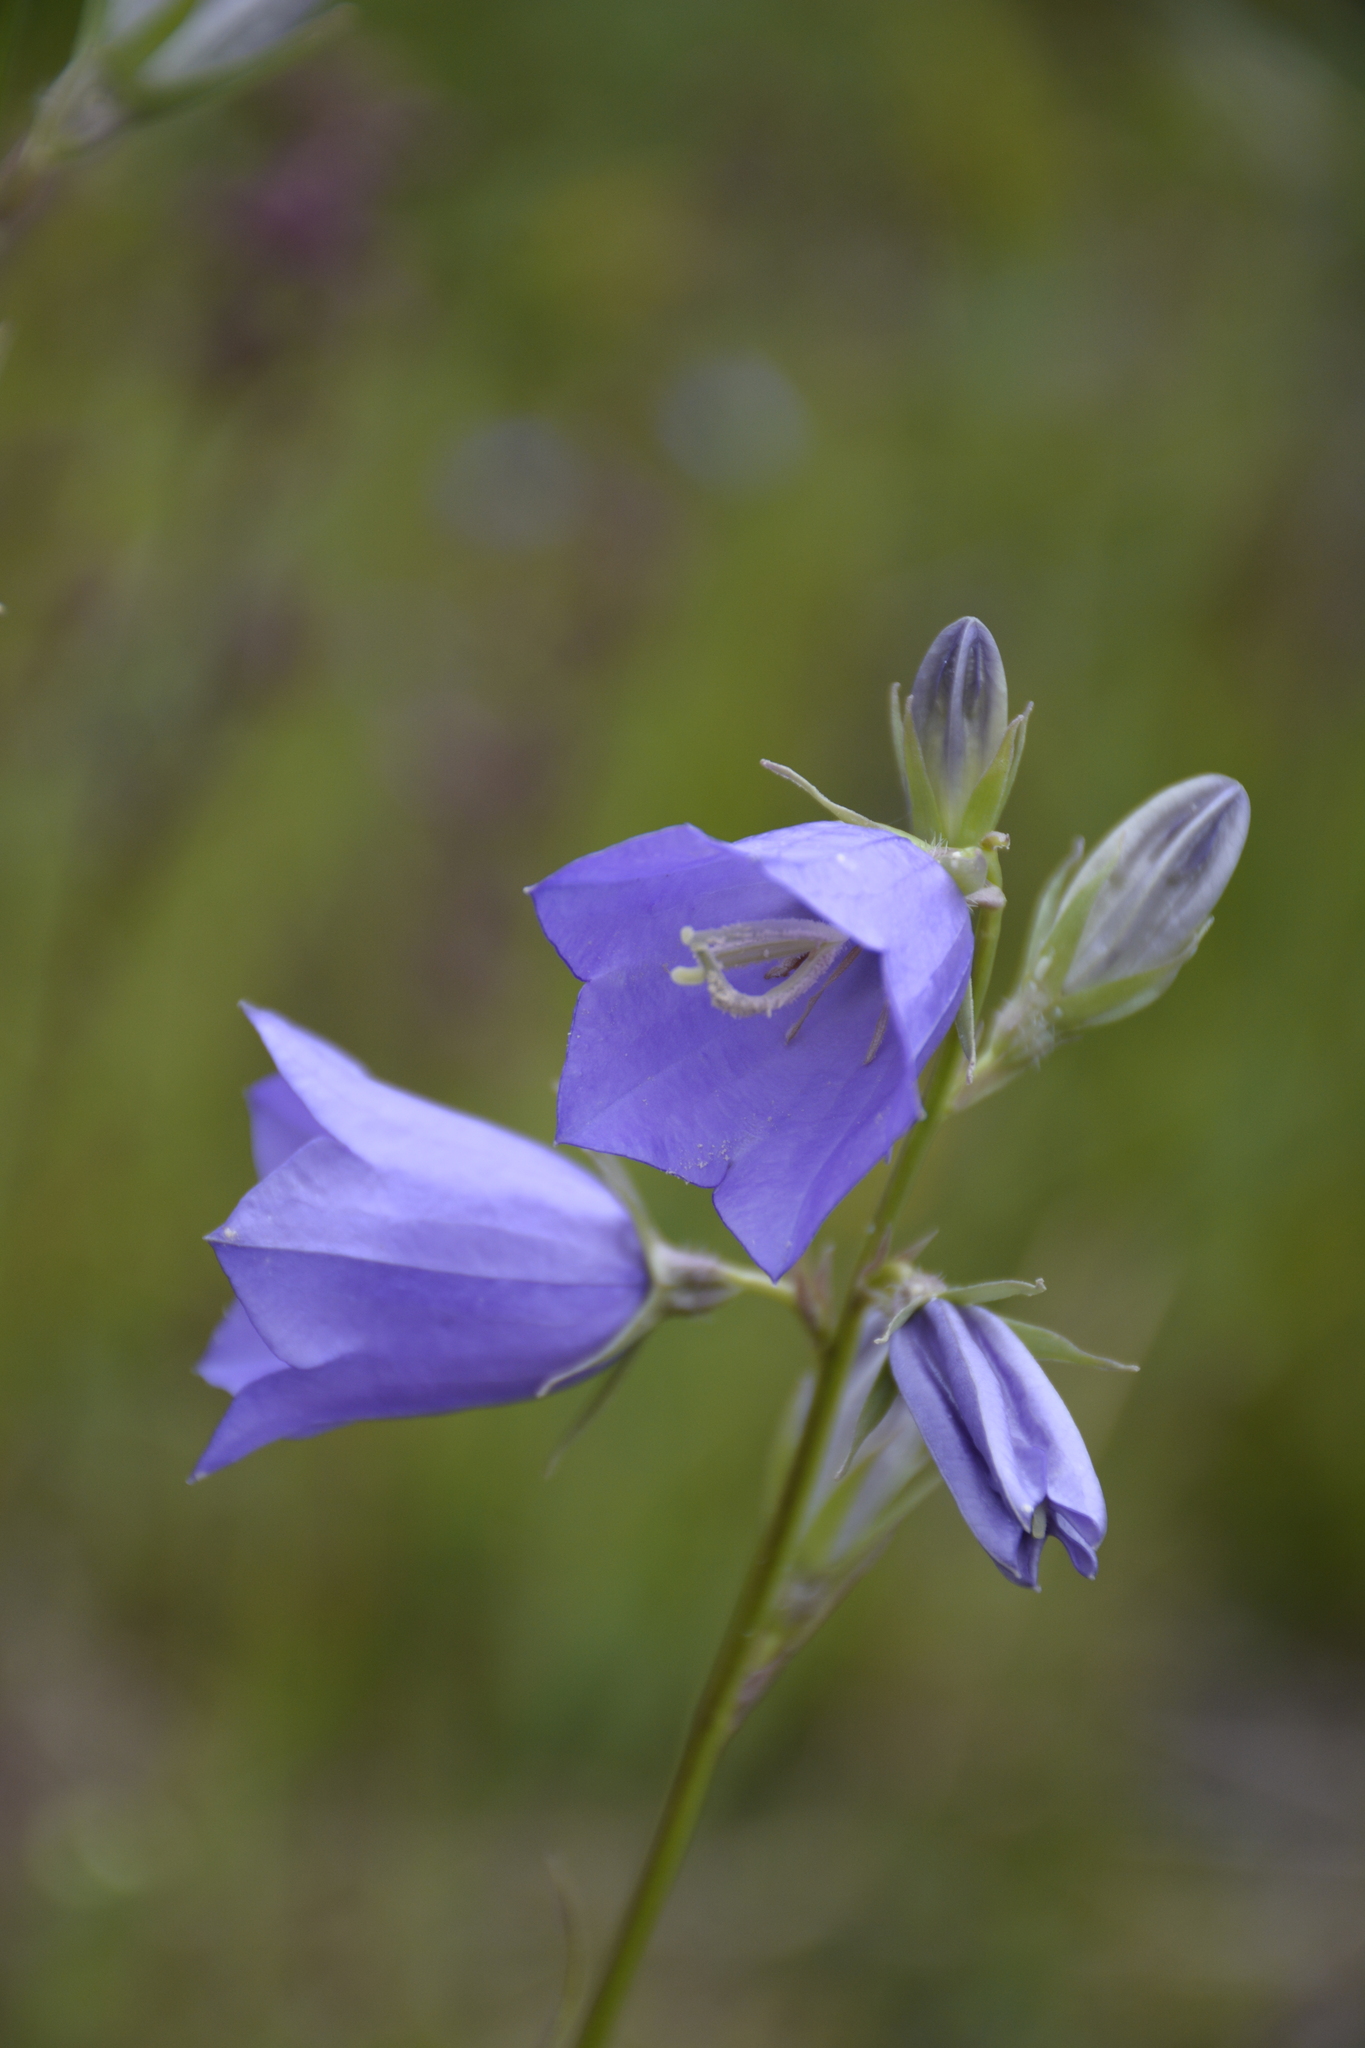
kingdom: Plantae
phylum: Tracheophyta
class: Magnoliopsida
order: Asterales
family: Campanulaceae
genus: Campanula
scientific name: Campanula persicifolia
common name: Peach-leaved bellflower
